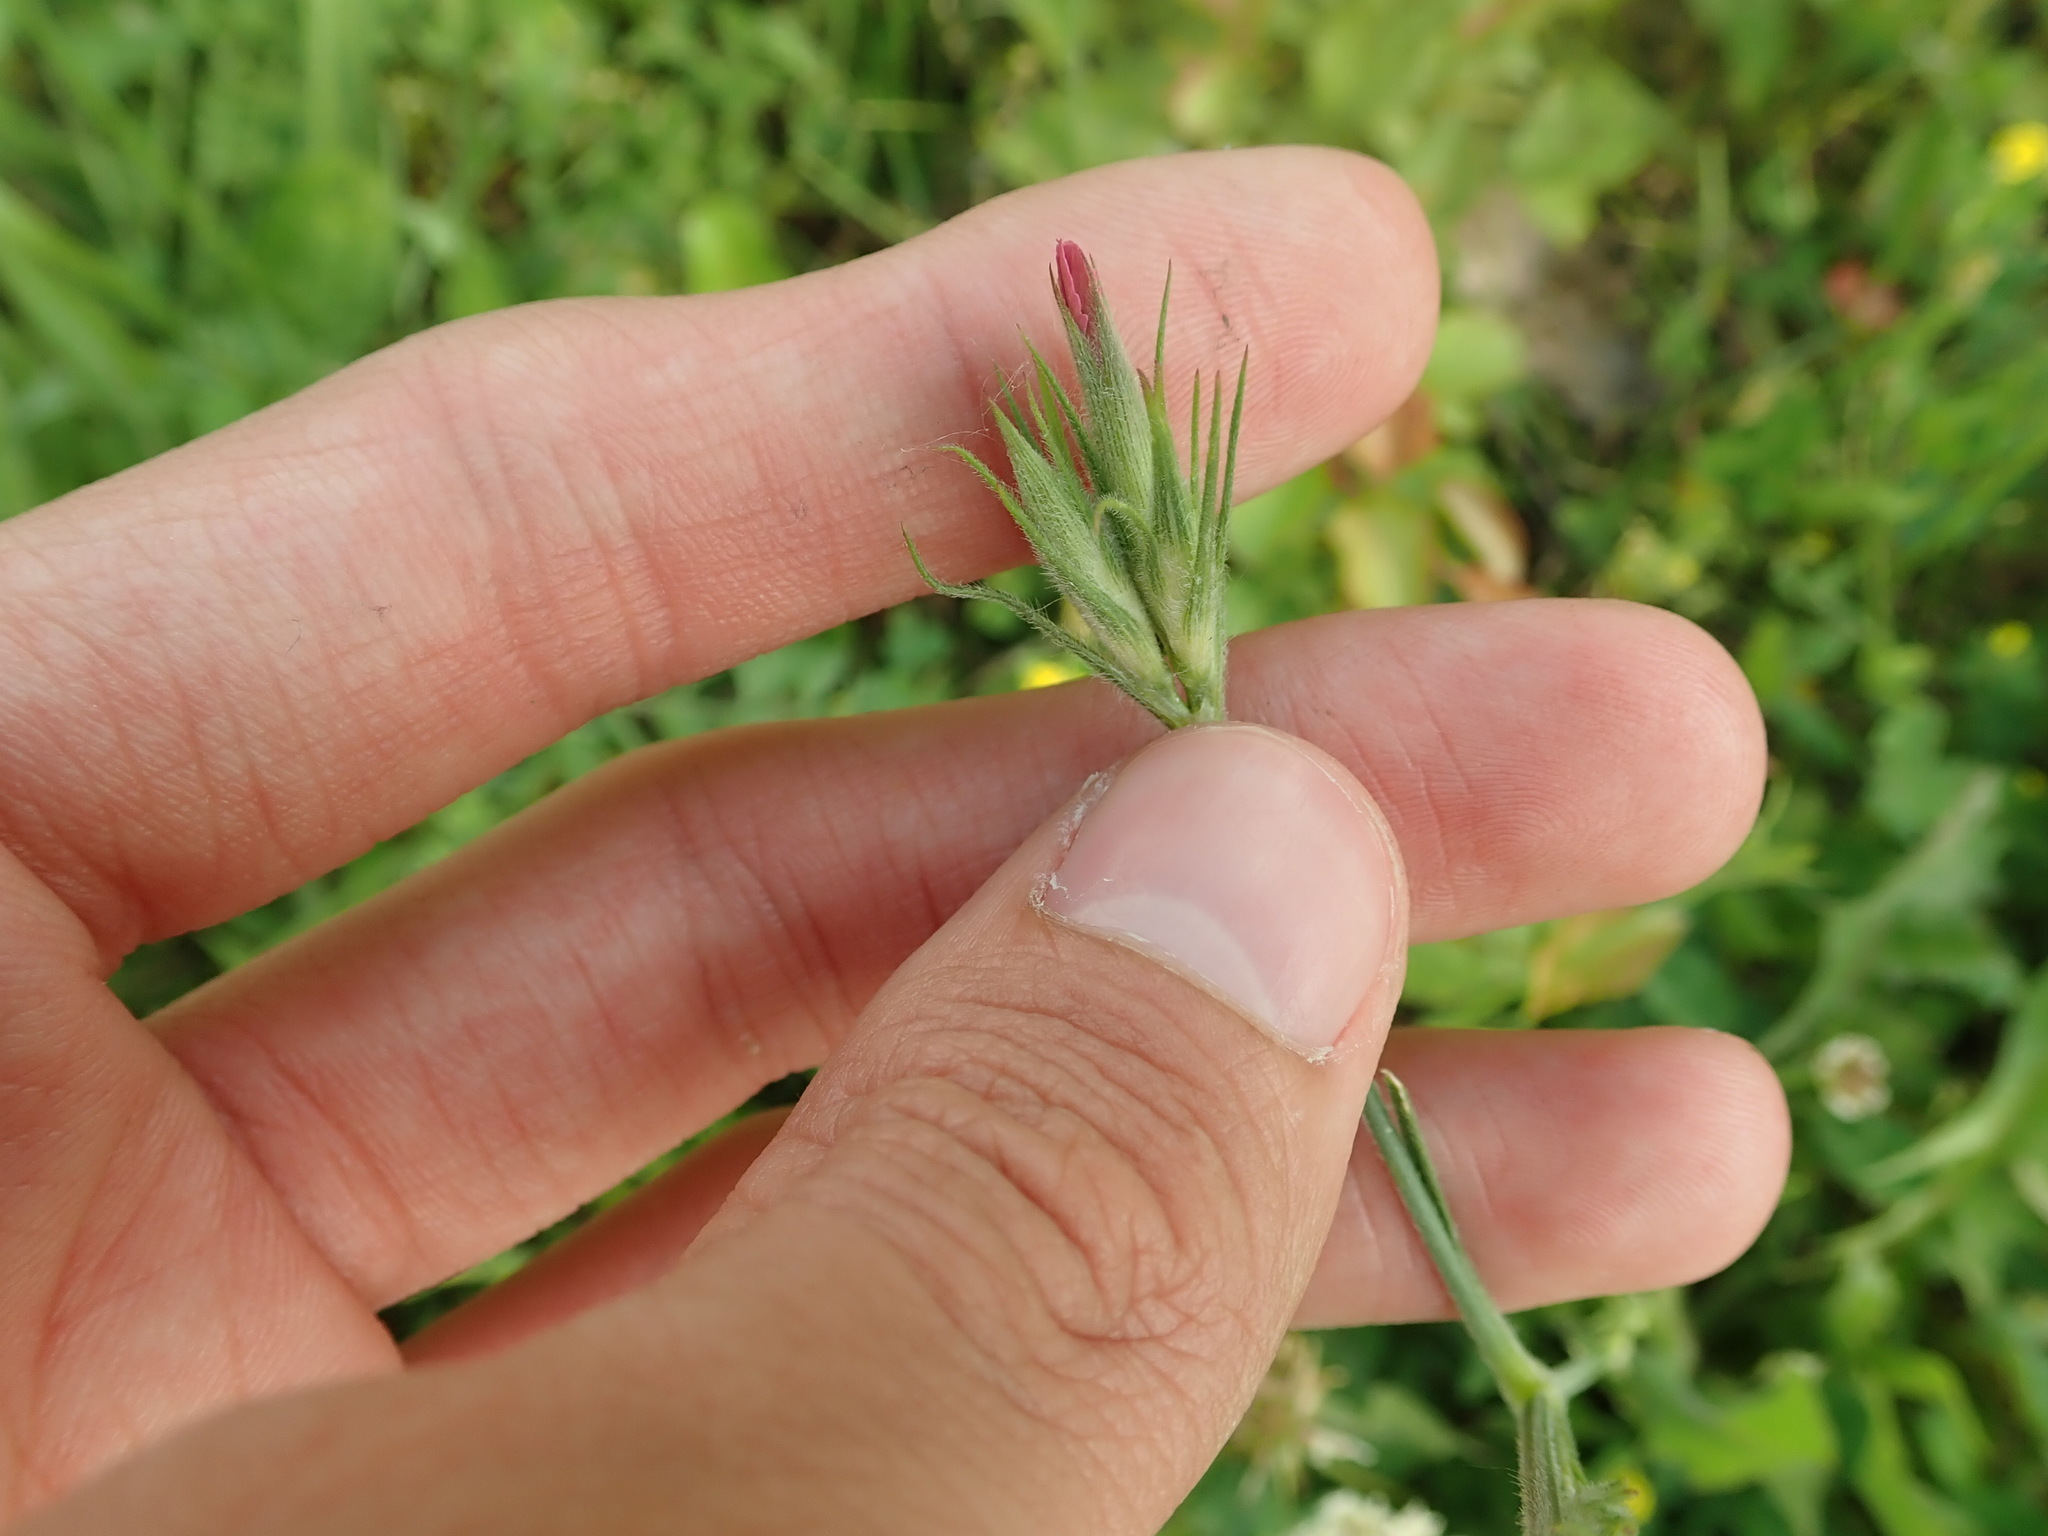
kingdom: Plantae
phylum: Tracheophyta
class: Magnoliopsida
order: Caryophyllales
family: Caryophyllaceae
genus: Dianthus
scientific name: Dianthus armeria
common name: Deptford pink
